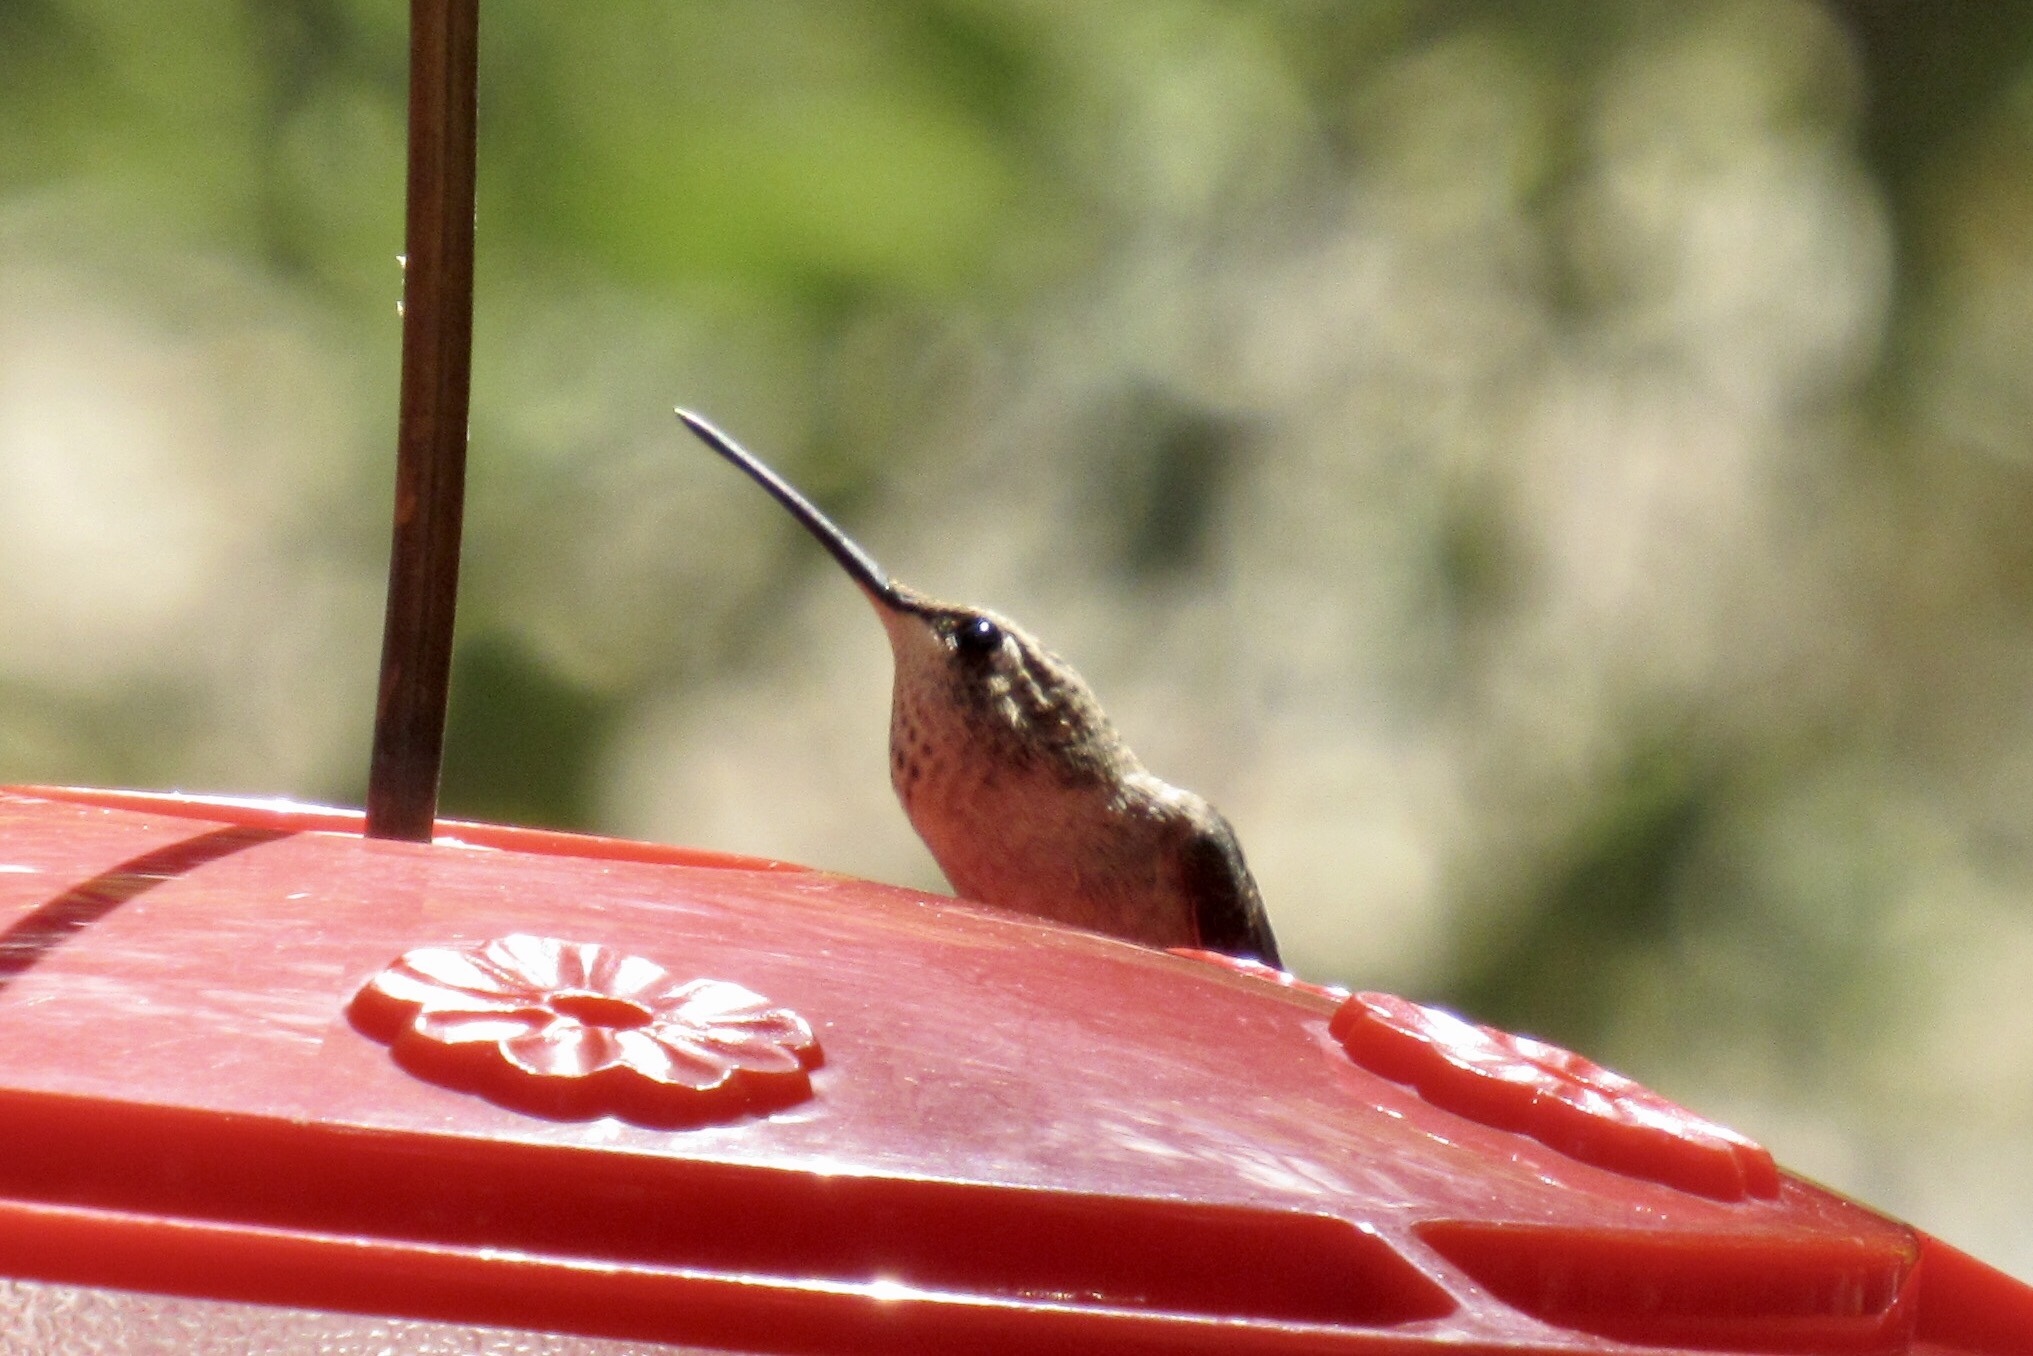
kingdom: Animalia
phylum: Chordata
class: Aves
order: Apodiformes
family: Trochilidae
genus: Selasphorus
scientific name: Selasphorus platycercus
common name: Broad-tailed hummingbird
